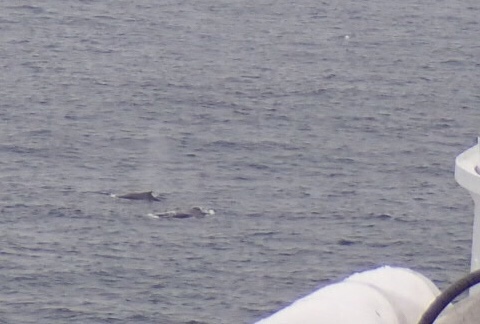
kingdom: Animalia
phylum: Chordata
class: Mammalia
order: Cetacea
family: Balaenopteridae
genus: Megaptera
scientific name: Megaptera novaeangliae
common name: Humpback whale
